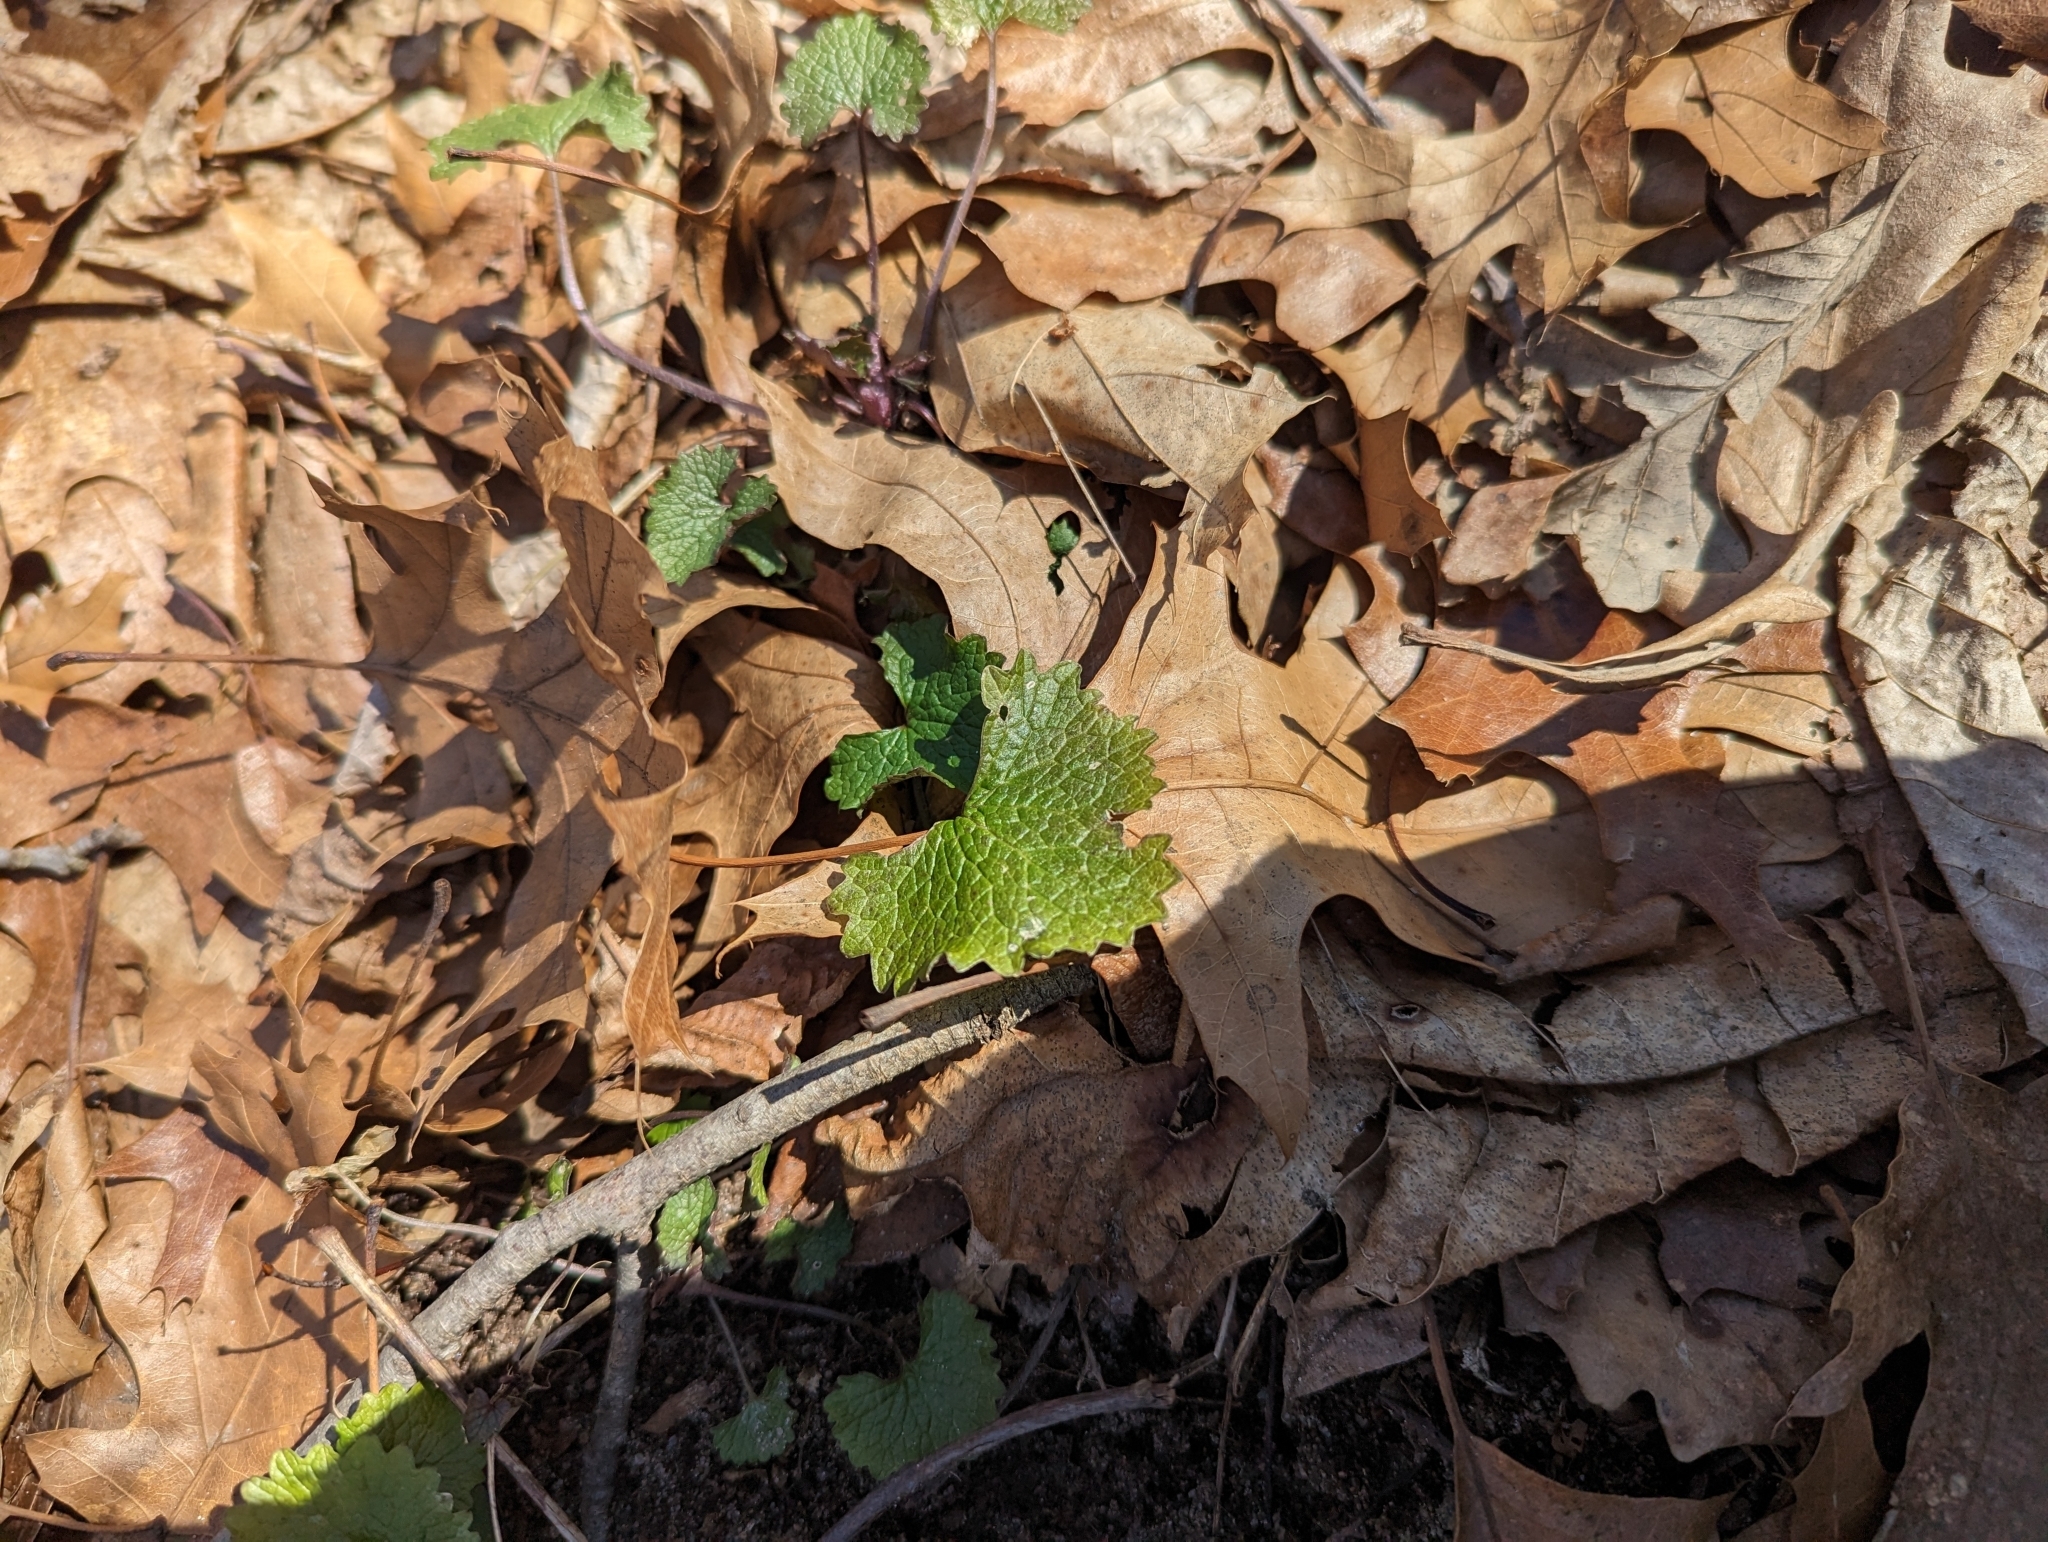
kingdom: Plantae
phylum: Tracheophyta
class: Magnoliopsida
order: Brassicales
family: Brassicaceae
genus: Alliaria
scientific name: Alliaria petiolata
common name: Garlic mustard
